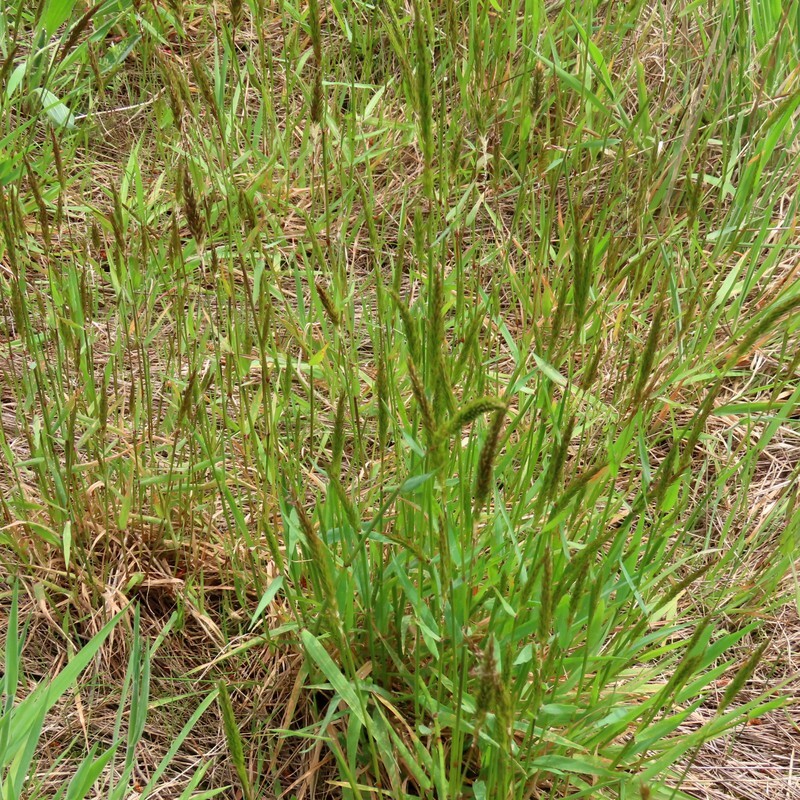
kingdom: Plantae
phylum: Tracheophyta
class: Liliopsida
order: Poales
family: Poaceae
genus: Anthoxanthum
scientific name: Anthoxanthum odoratum
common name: Sweet vernalgrass
